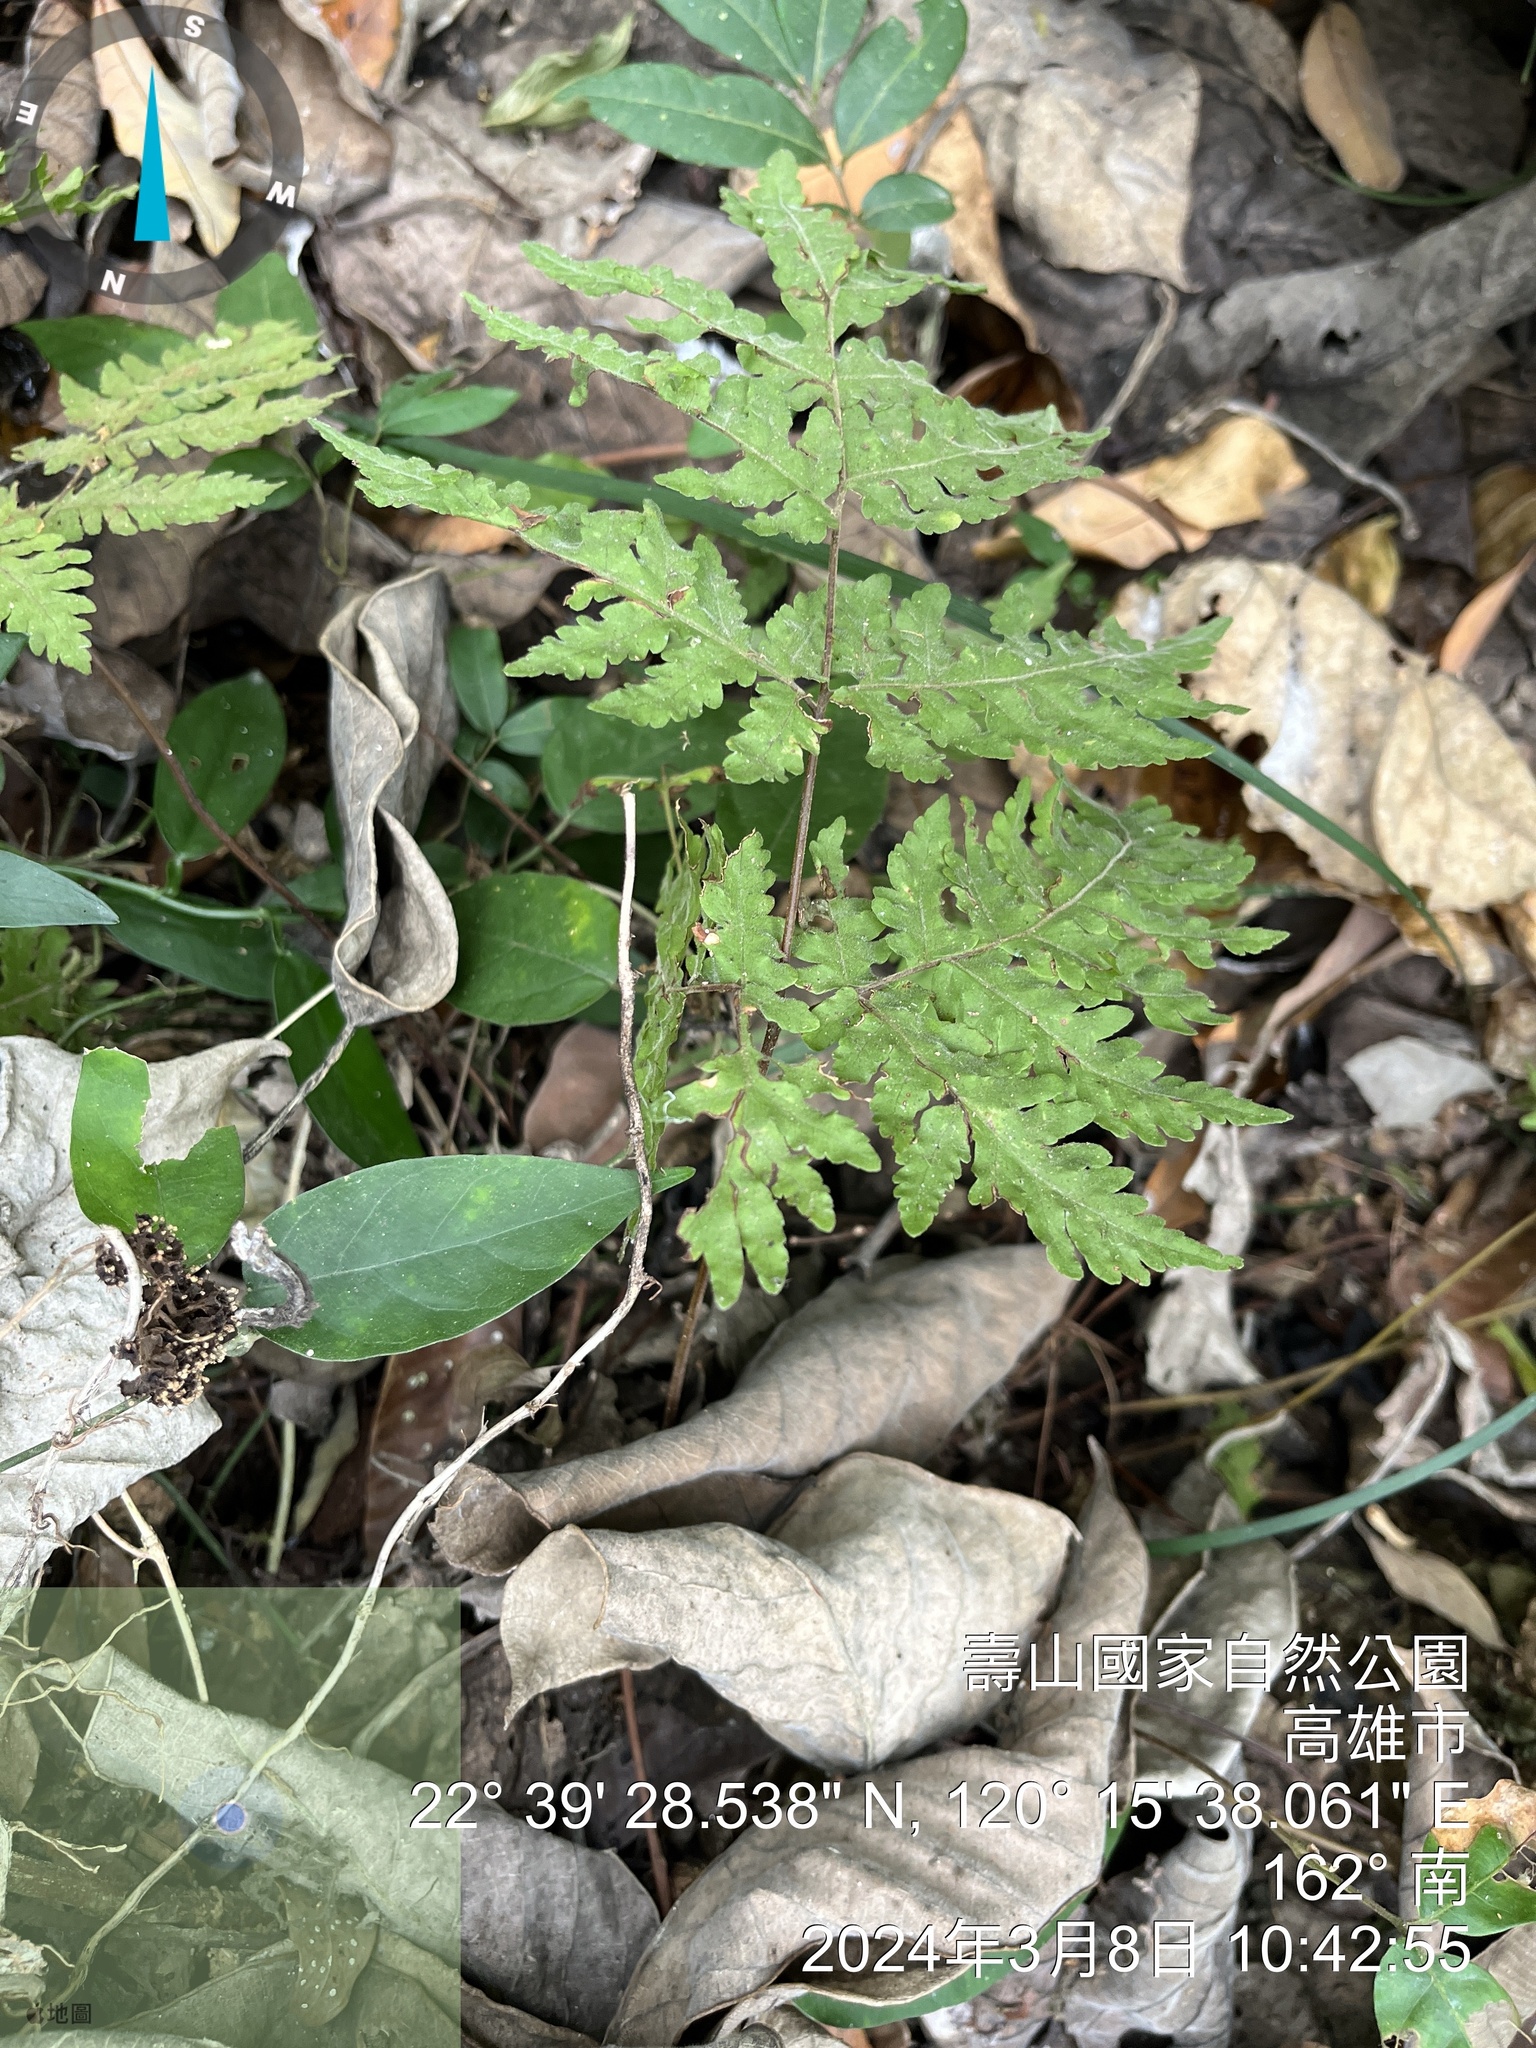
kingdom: Plantae
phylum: Tracheophyta
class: Polypodiopsida
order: Polypodiales
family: Tectariaceae
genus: Tectaria
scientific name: Tectaria membranacea
